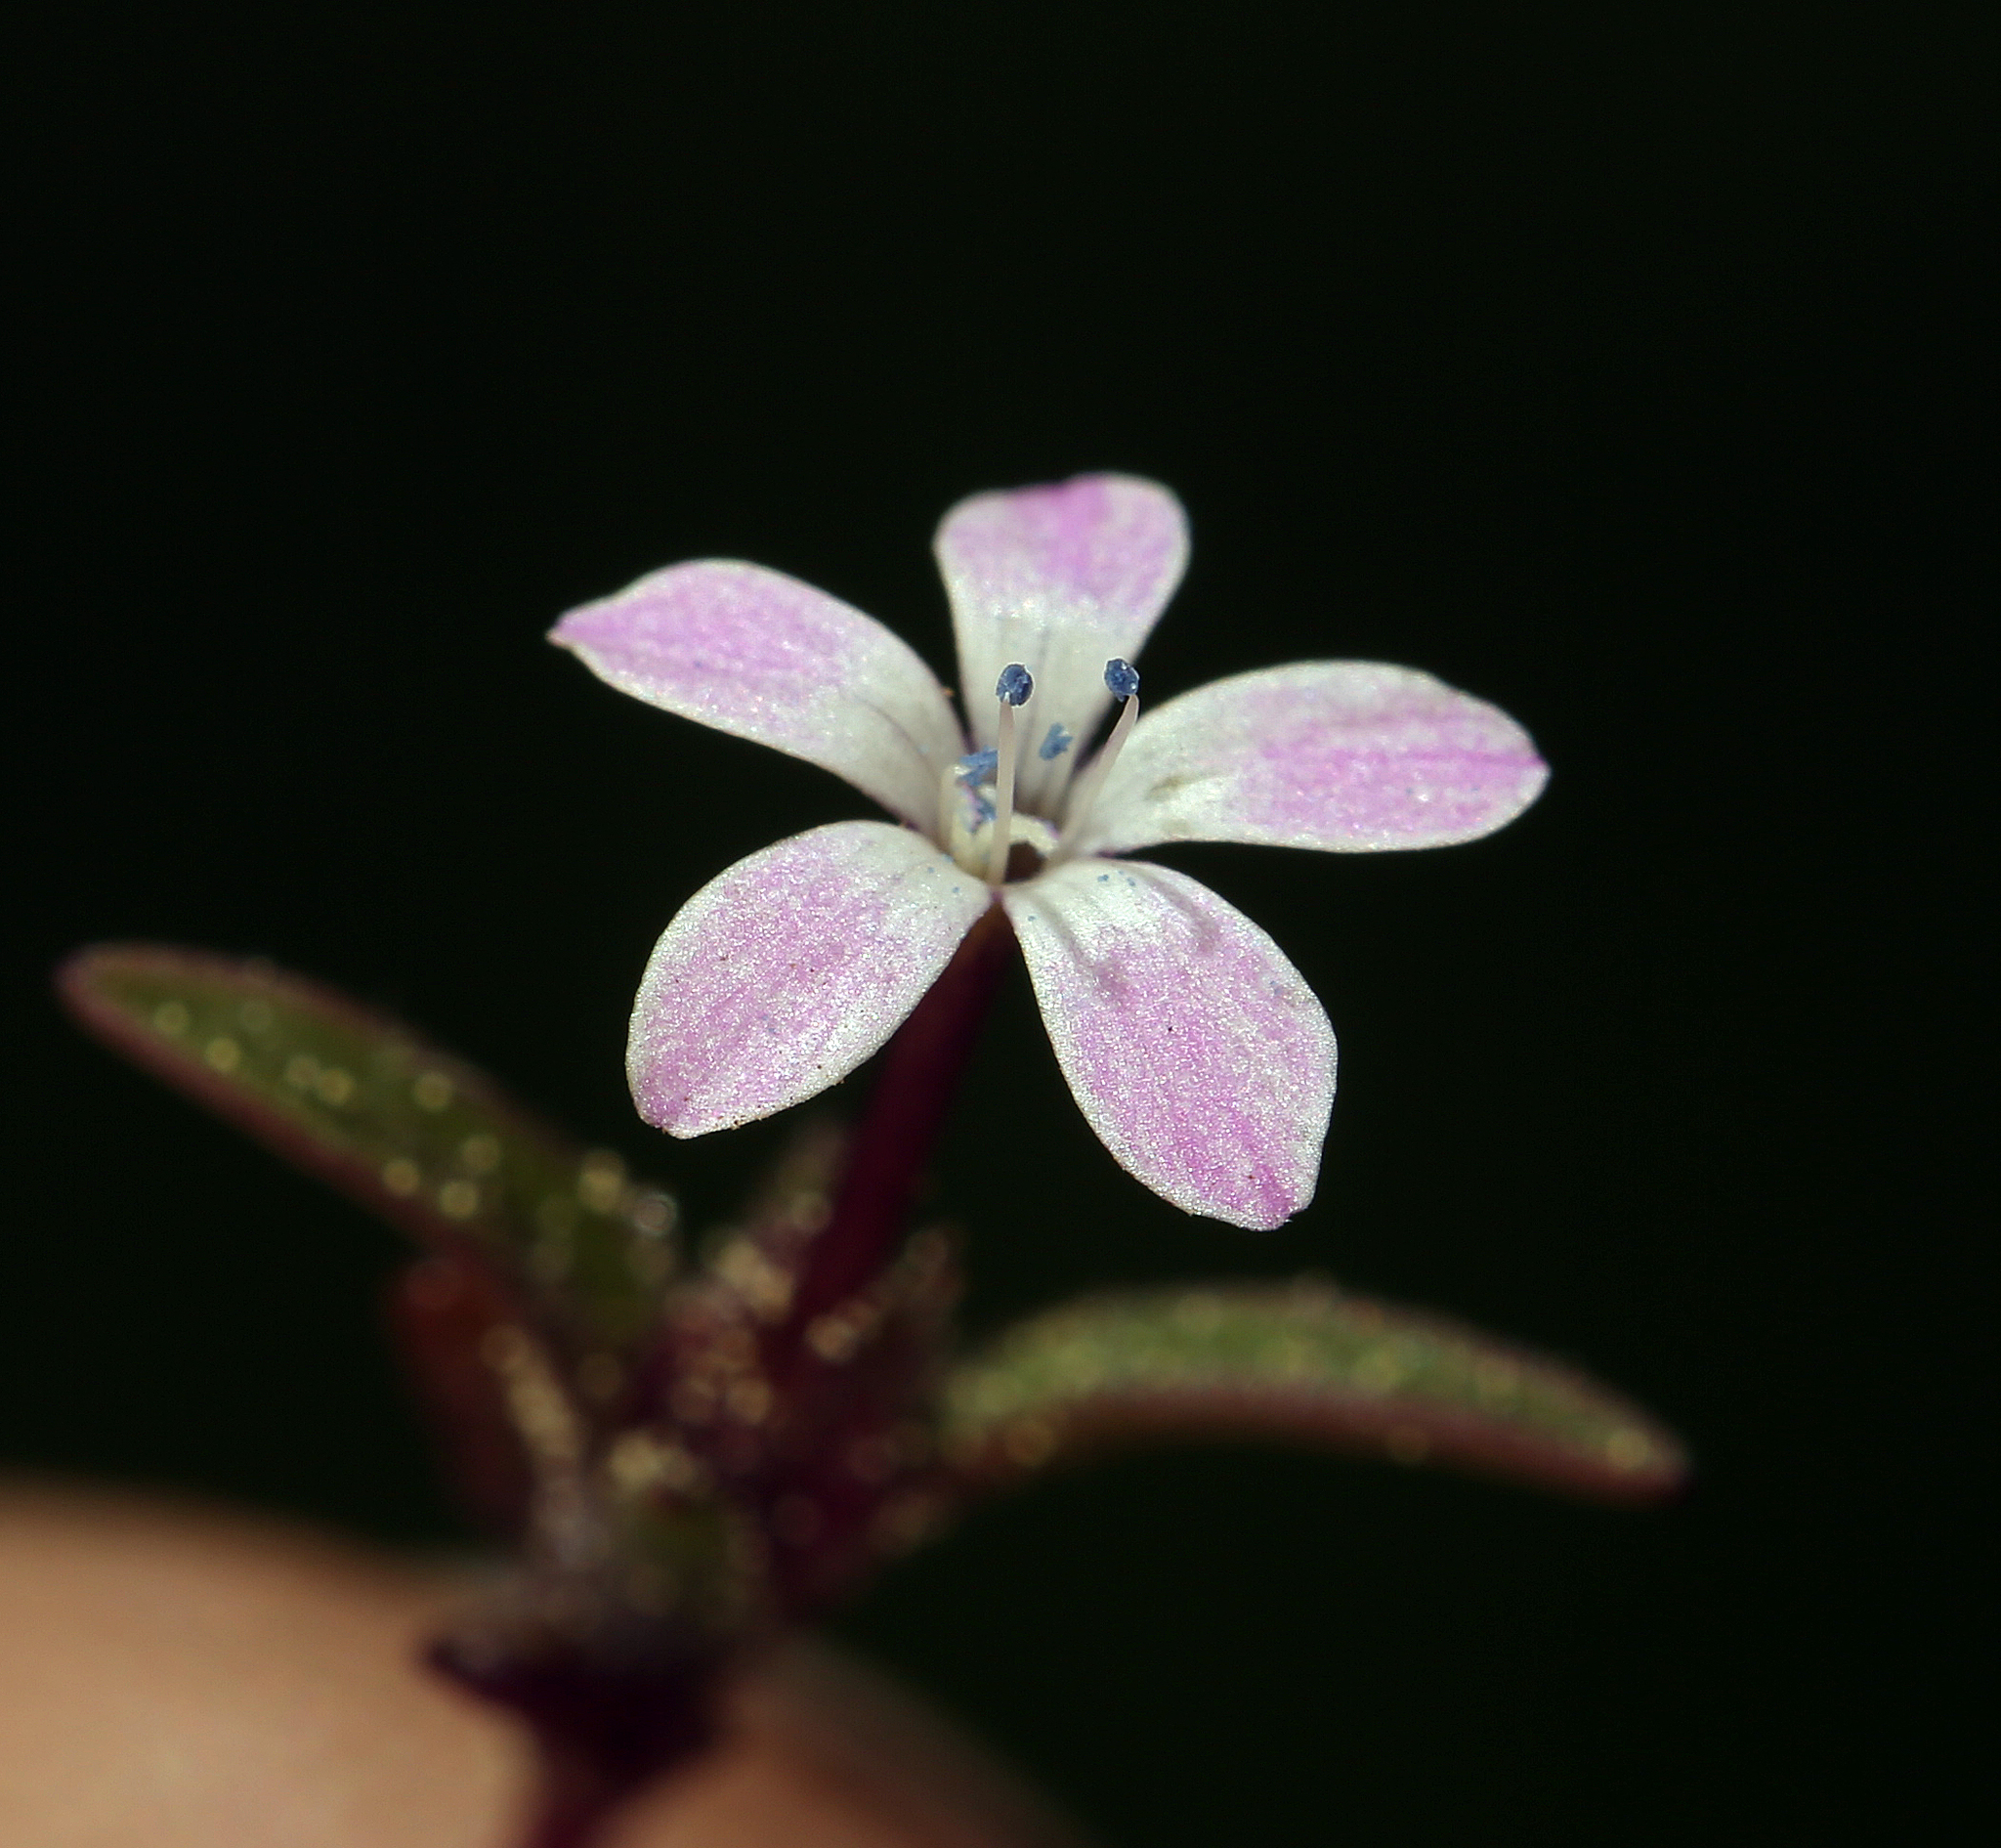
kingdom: Plantae
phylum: Tracheophyta
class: Magnoliopsida
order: Ericales
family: Polemoniaceae
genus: Collomia
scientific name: Collomia tinctoria
